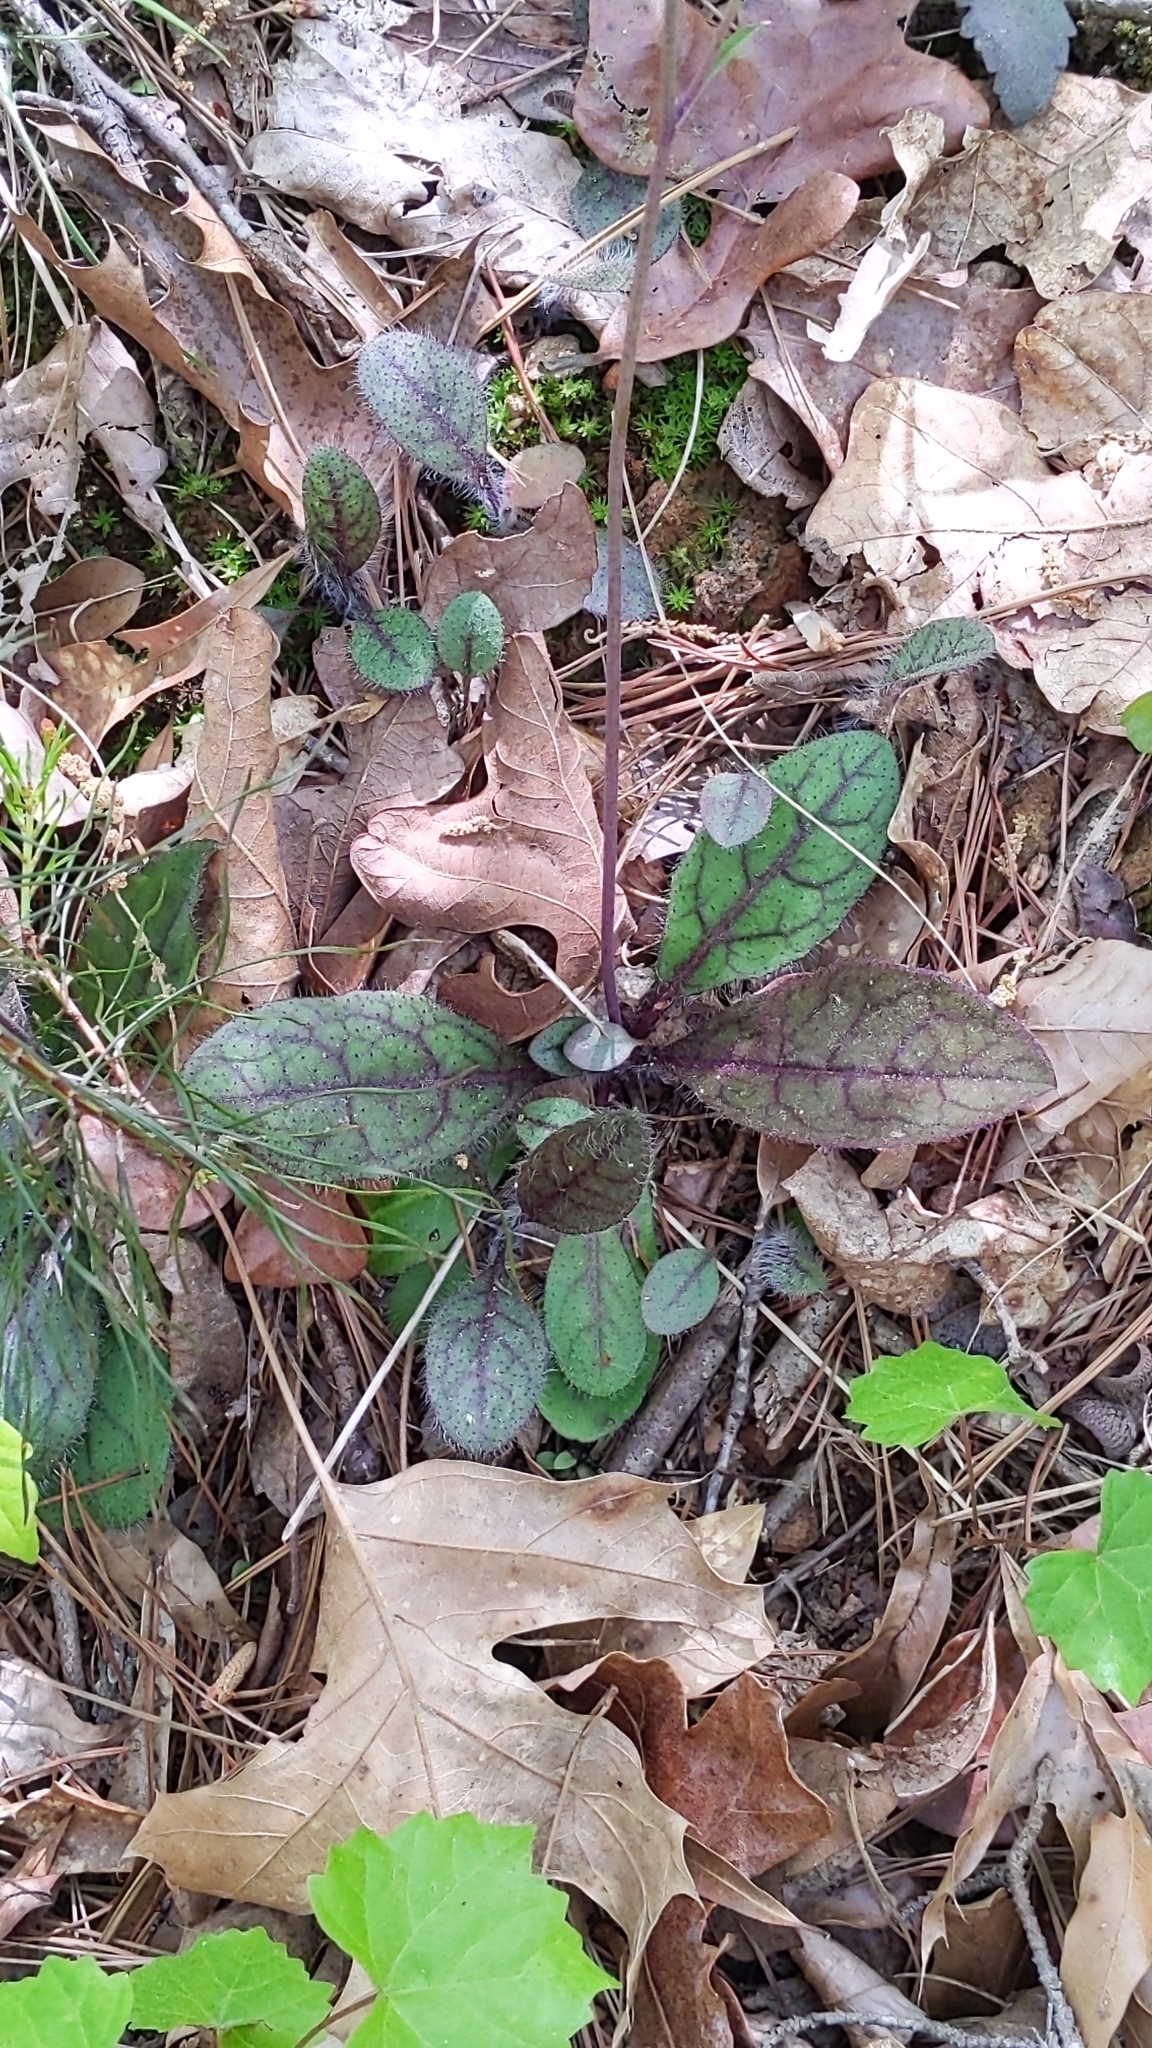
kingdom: Plantae
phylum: Tracheophyta
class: Magnoliopsida
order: Asterales
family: Asteraceae
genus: Hieracium
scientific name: Hieracium venosum
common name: Rattlesnake hawkweed
